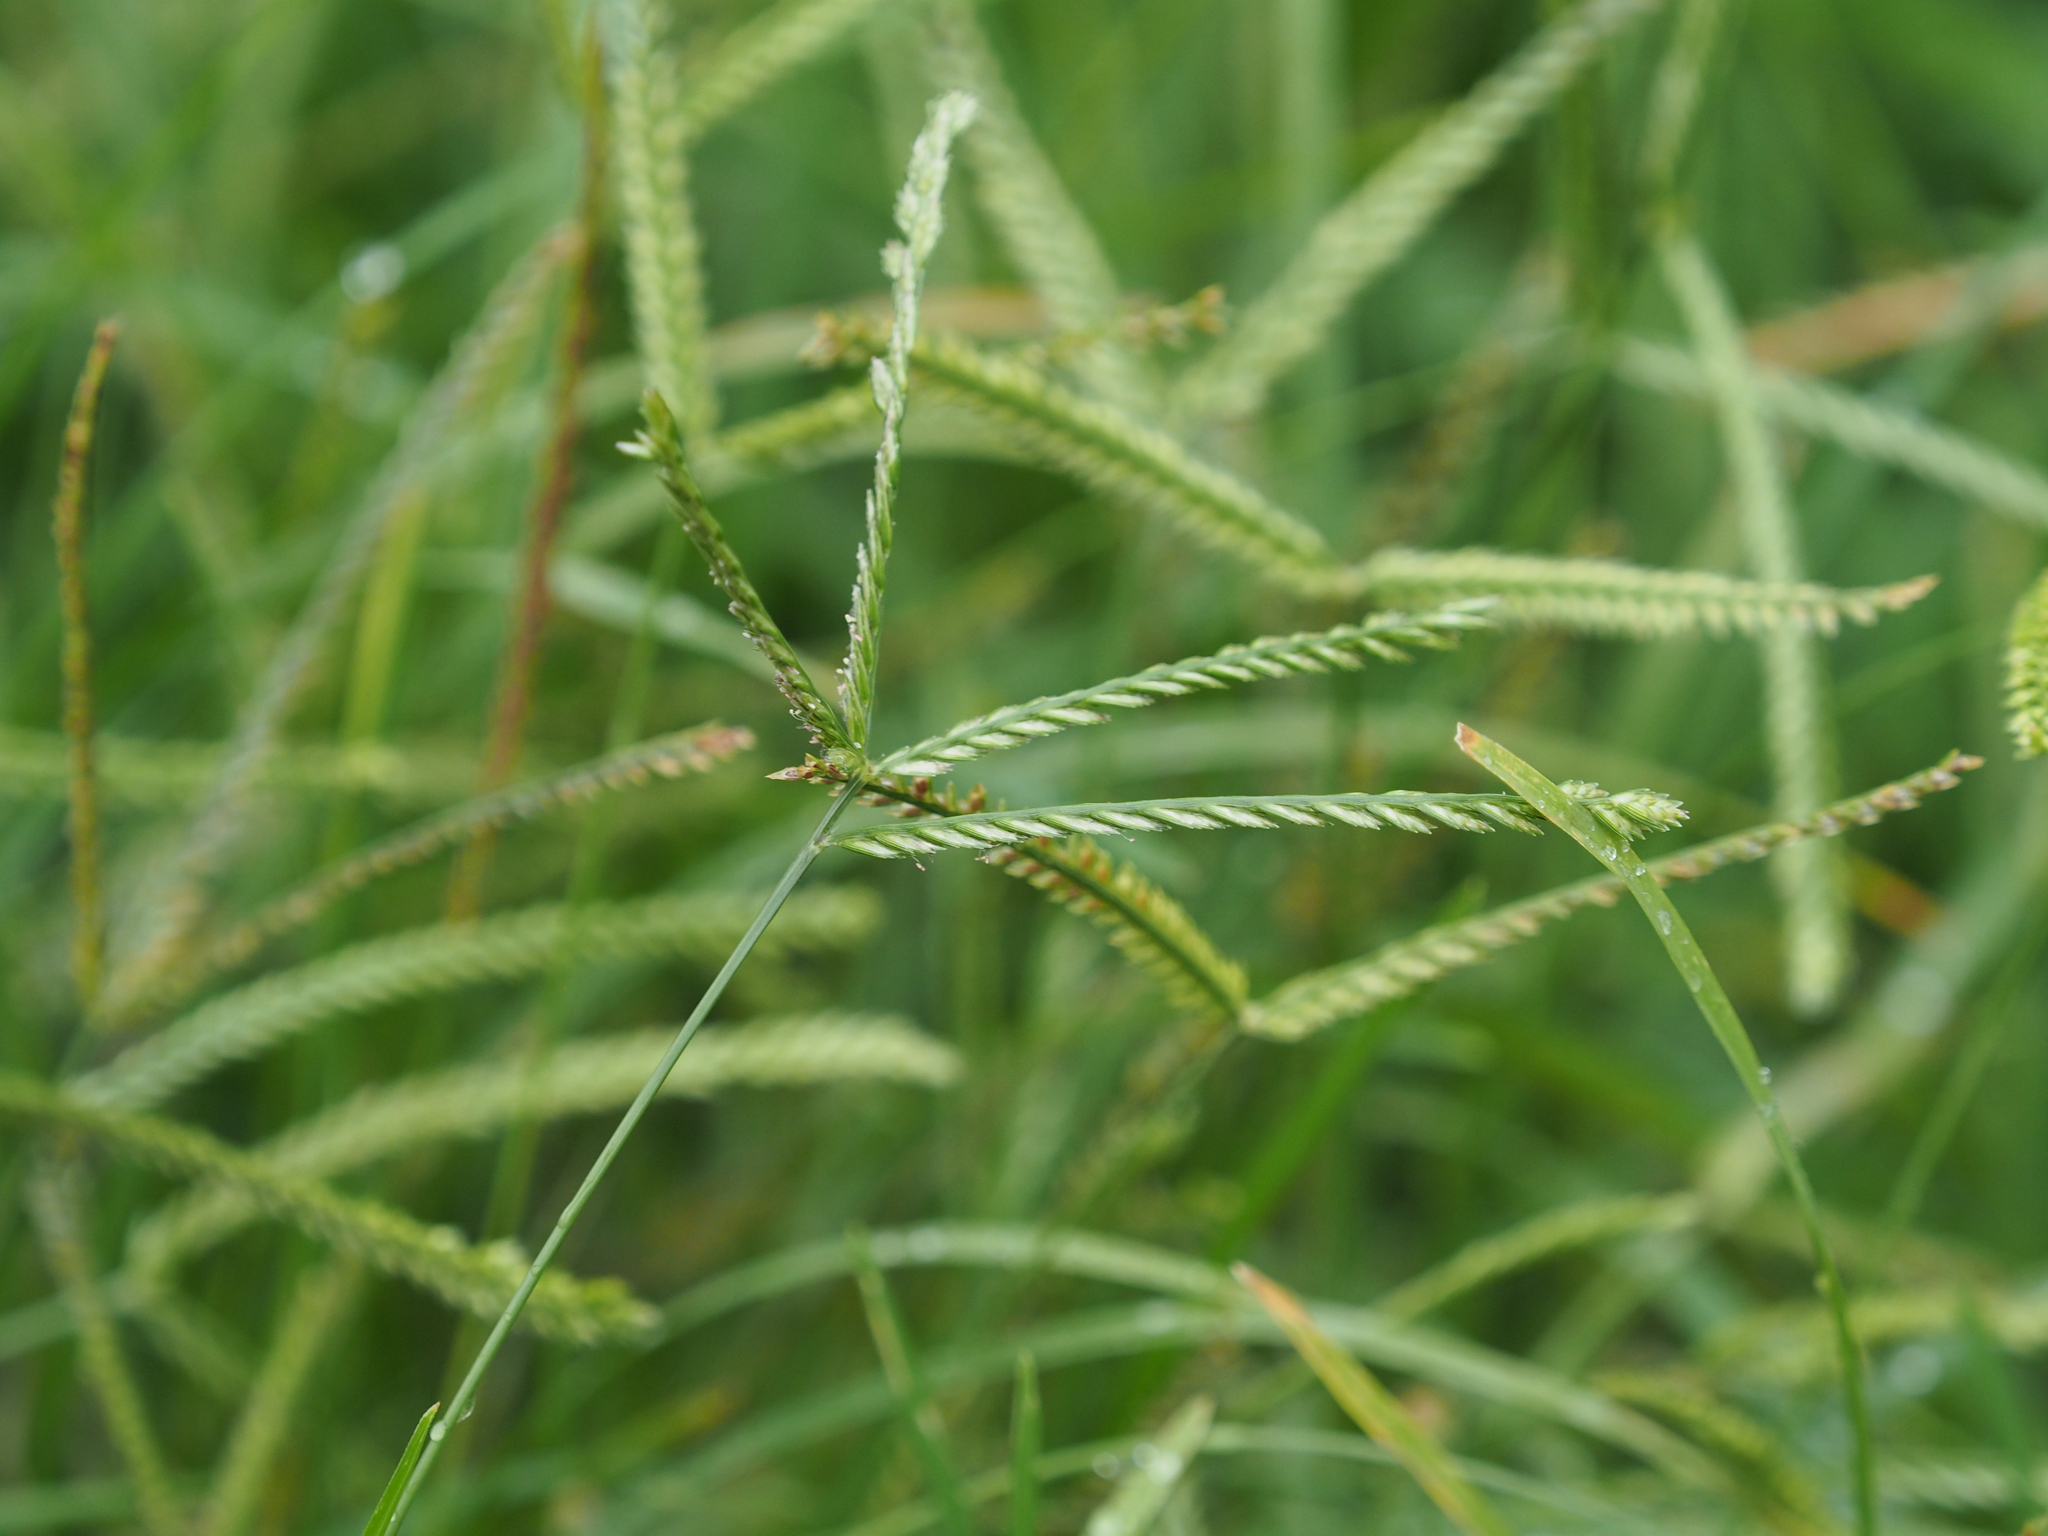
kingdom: Plantae
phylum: Tracheophyta
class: Liliopsida
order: Poales
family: Poaceae
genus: Eleusine
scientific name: Eleusine indica
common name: Yard-grass
